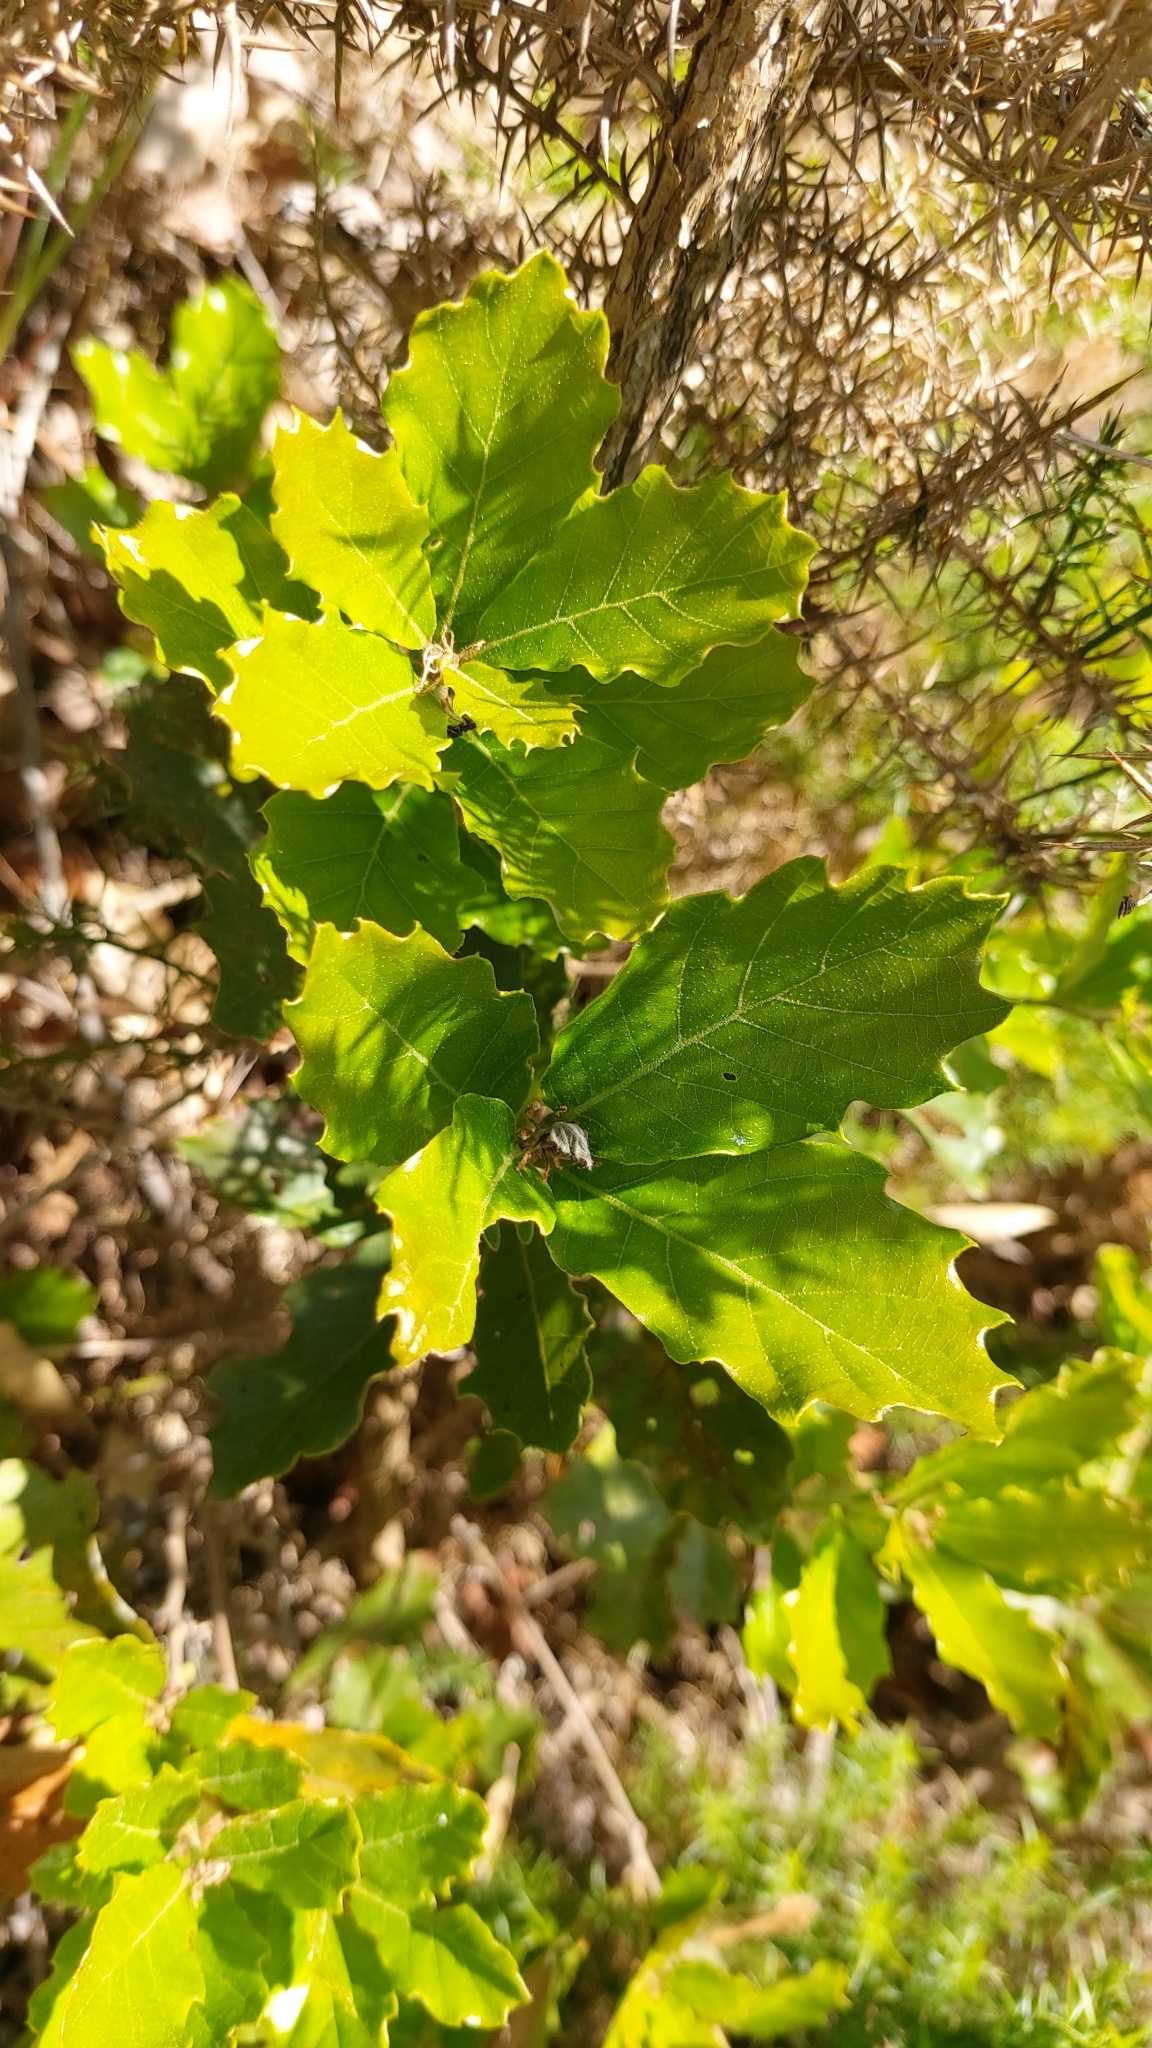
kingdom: Plantae
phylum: Tracheophyta
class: Magnoliopsida
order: Fagales
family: Fagaceae
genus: Quercus
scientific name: Quercus lusitanica
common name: Scrub gall oak
